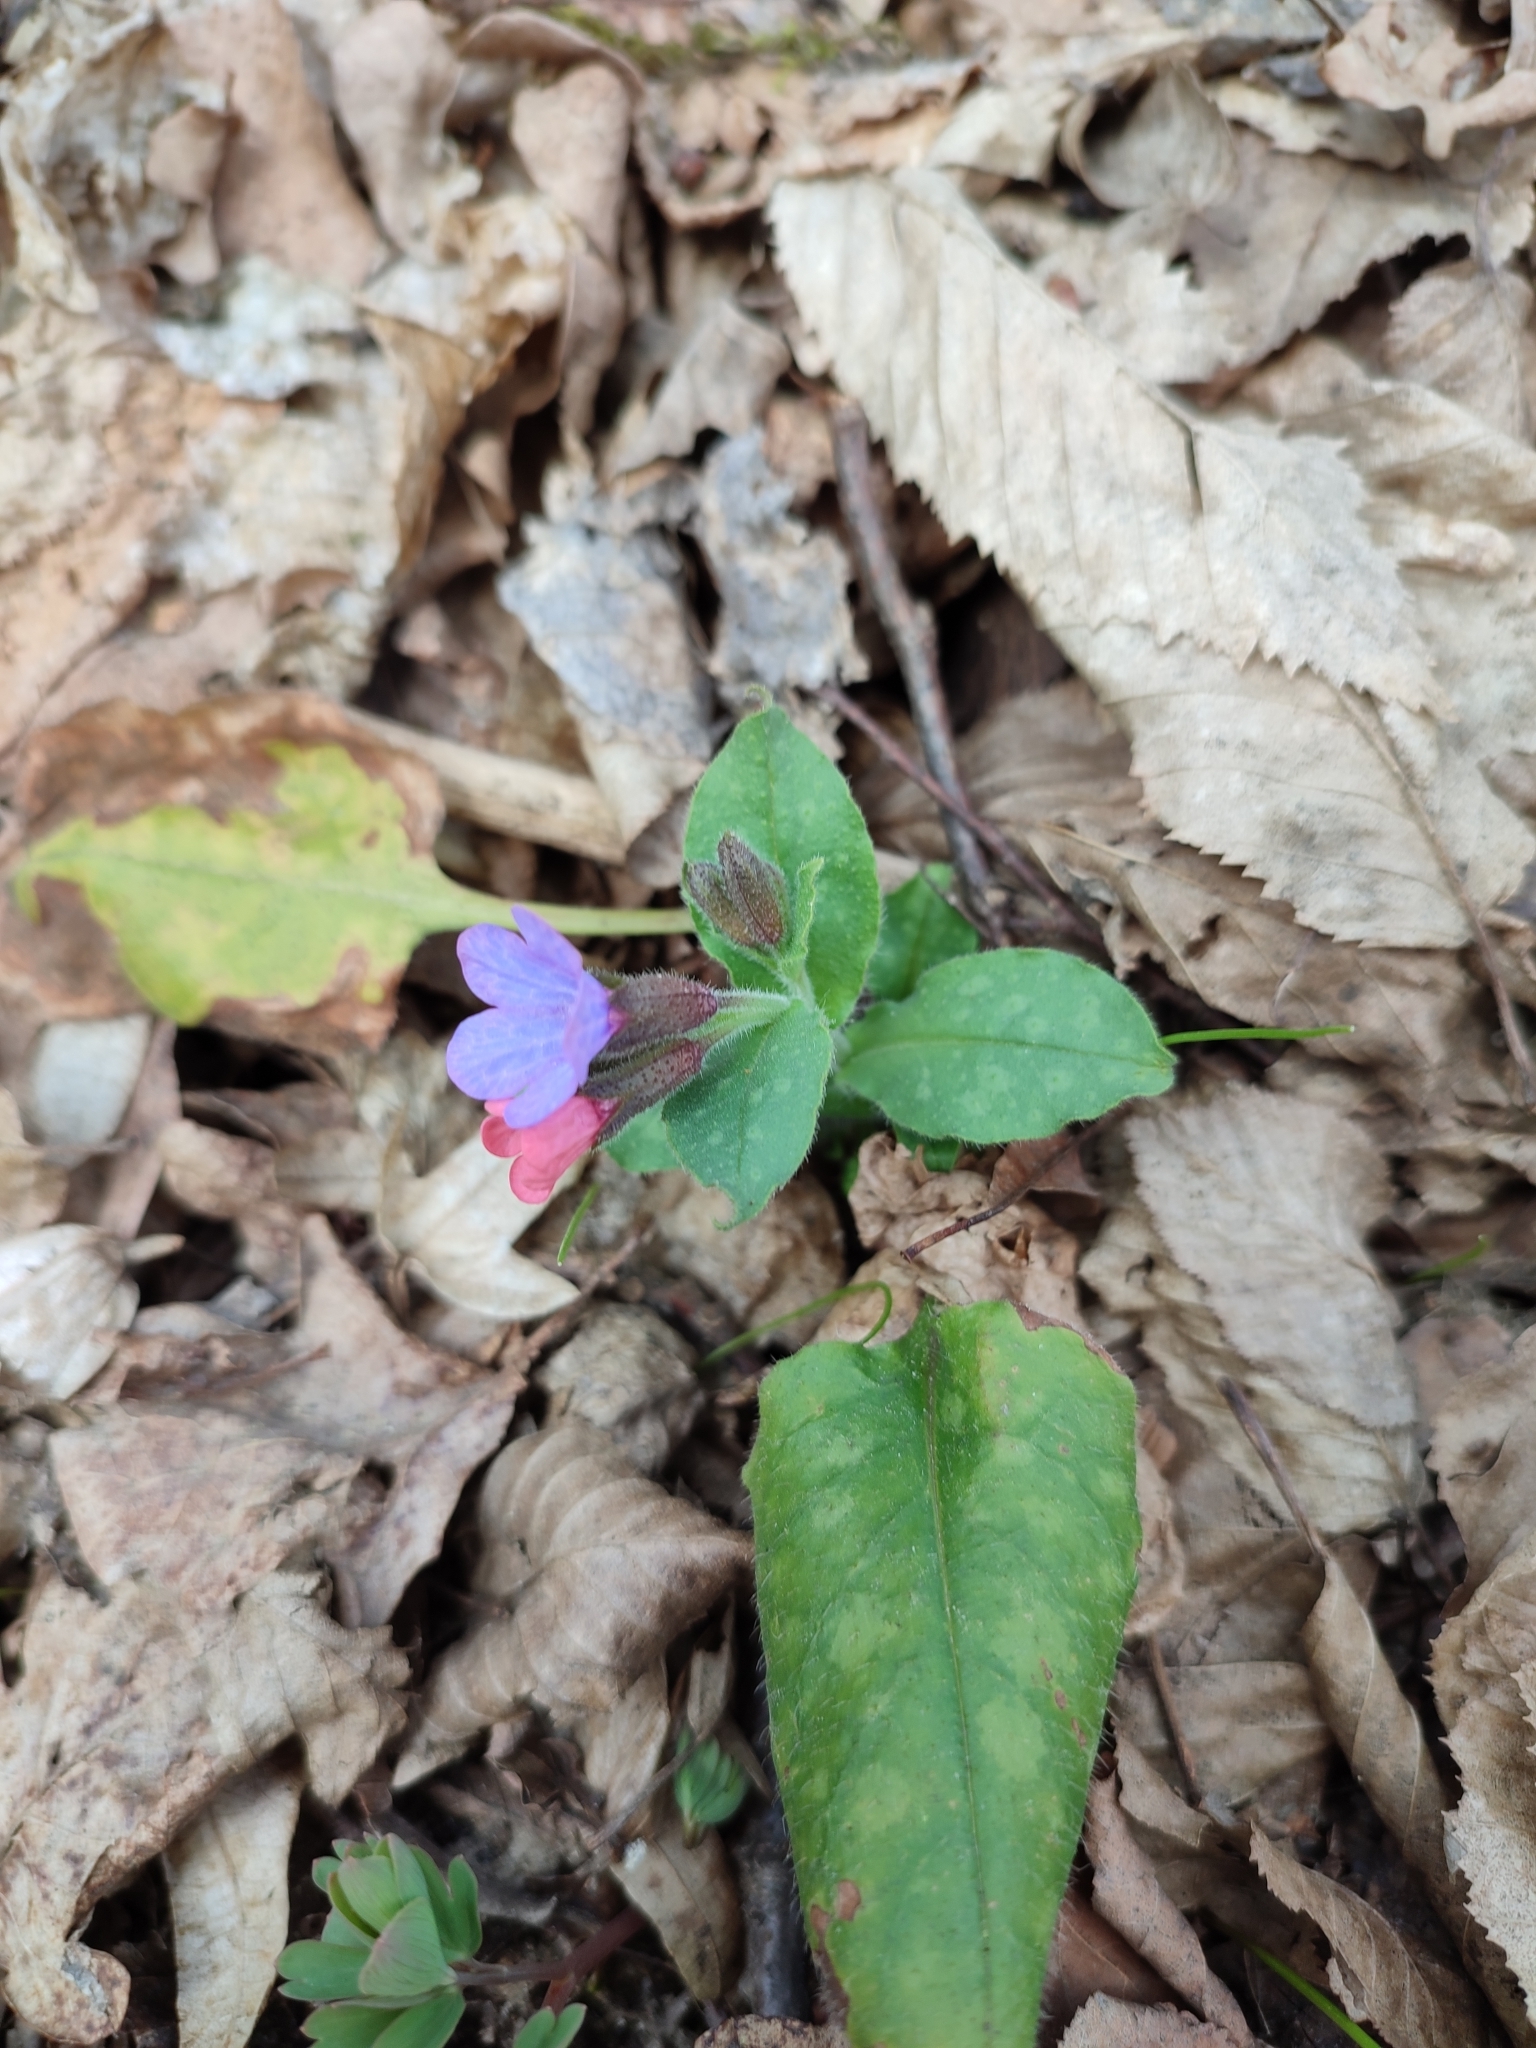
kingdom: Plantae
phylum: Tracheophyta
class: Magnoliopsida
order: Boraginales
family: Boraginaceae
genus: Pulmonaria
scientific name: Pulmonaria obscura
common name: Suffolk lungwort
